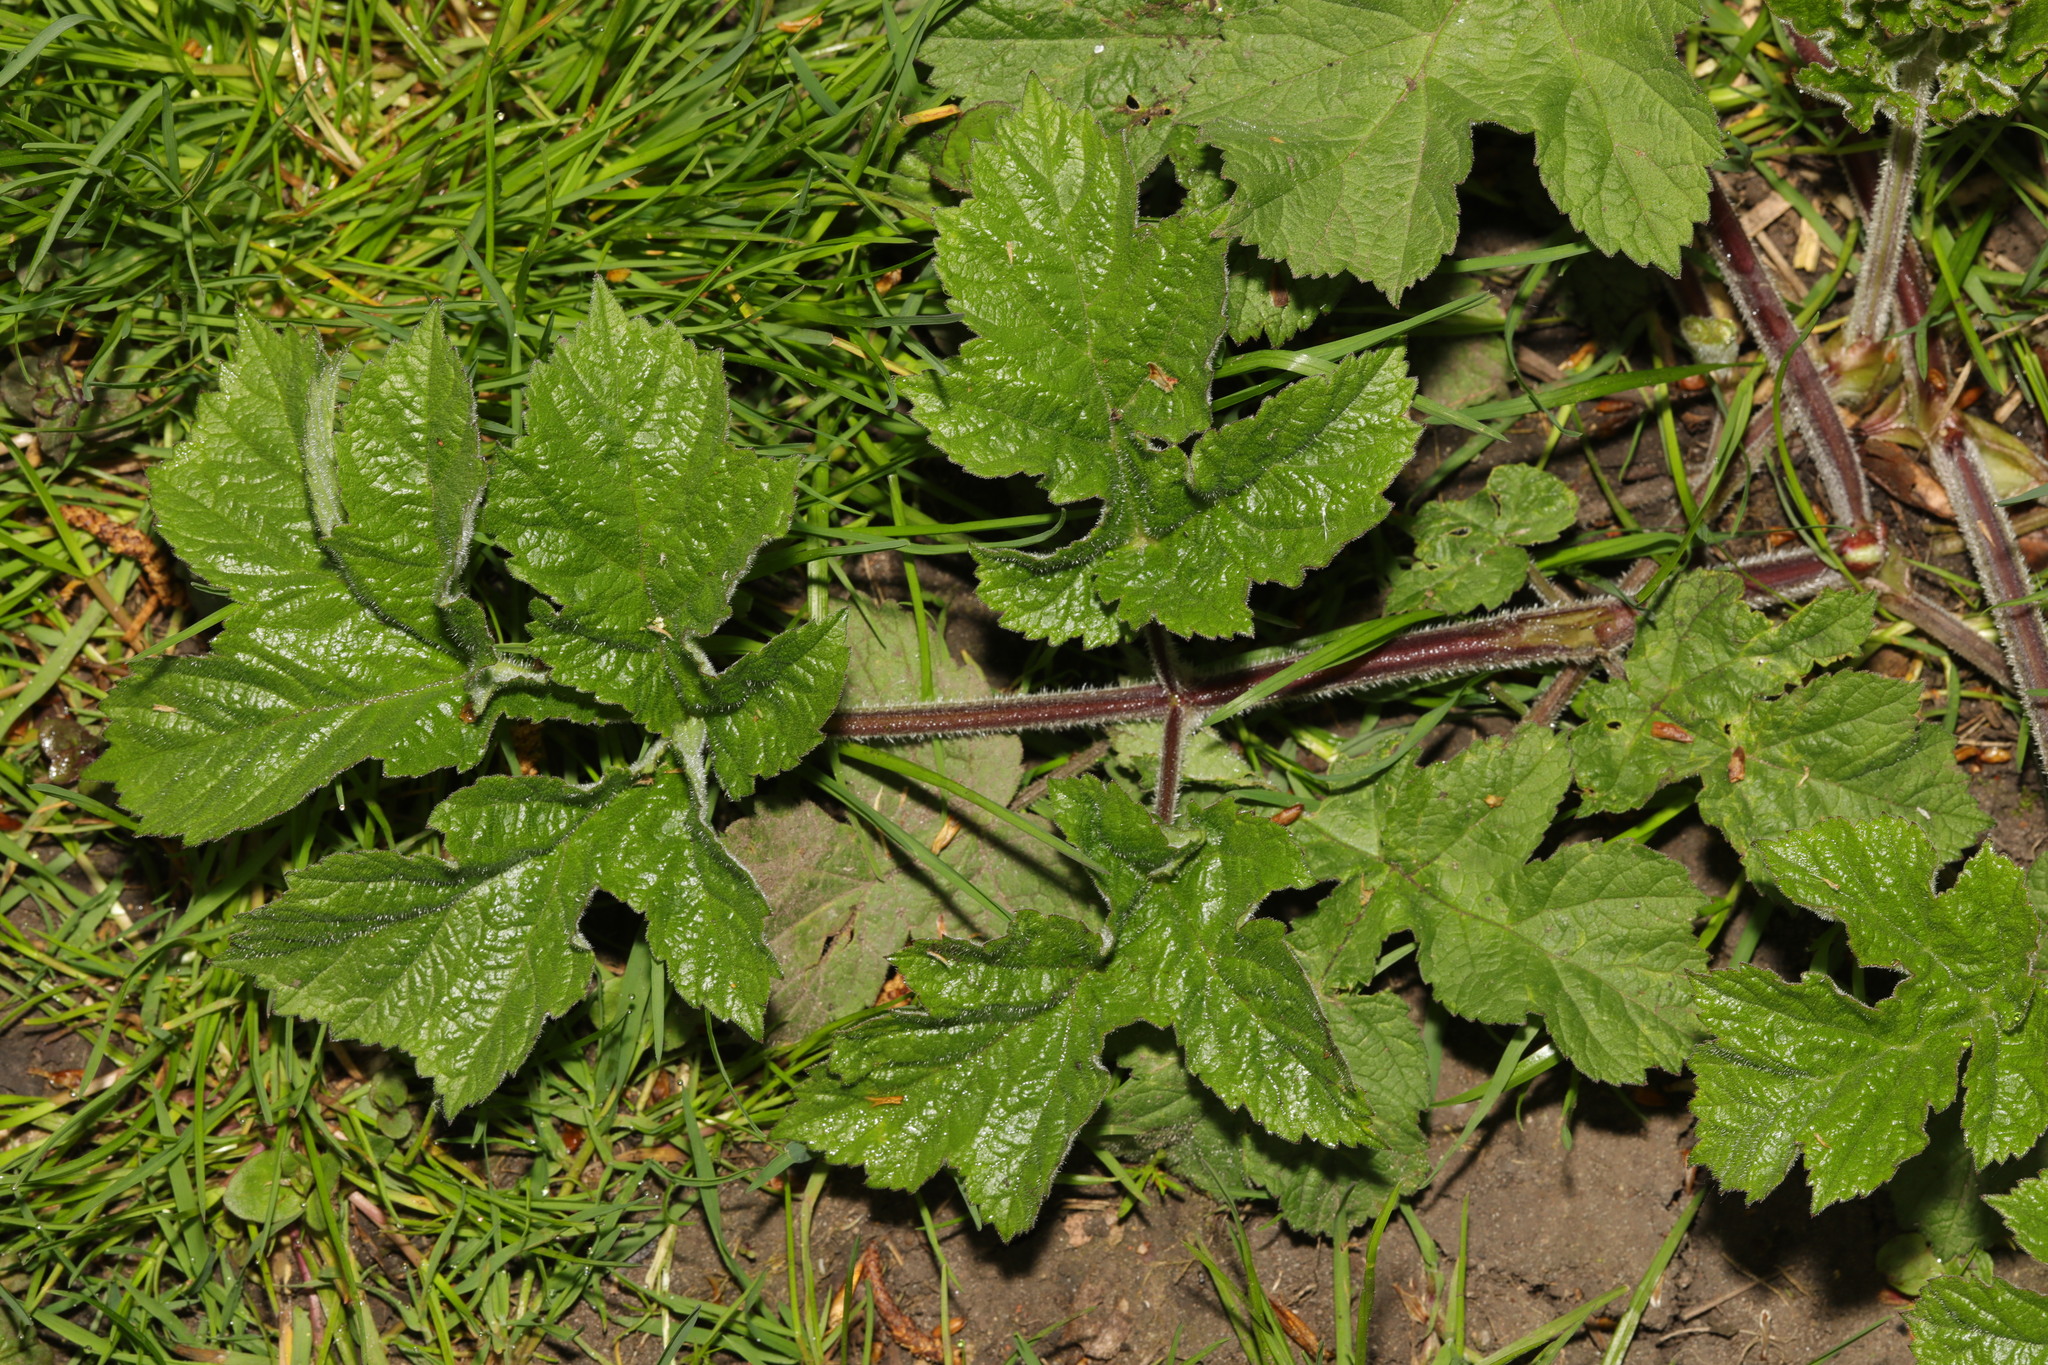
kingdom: Plantae
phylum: Tracheophyta
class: Magnoliopsida
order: Apiales
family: Apiaceae
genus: Heracleum
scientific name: Heracleum sphondylium
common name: Hogweed
